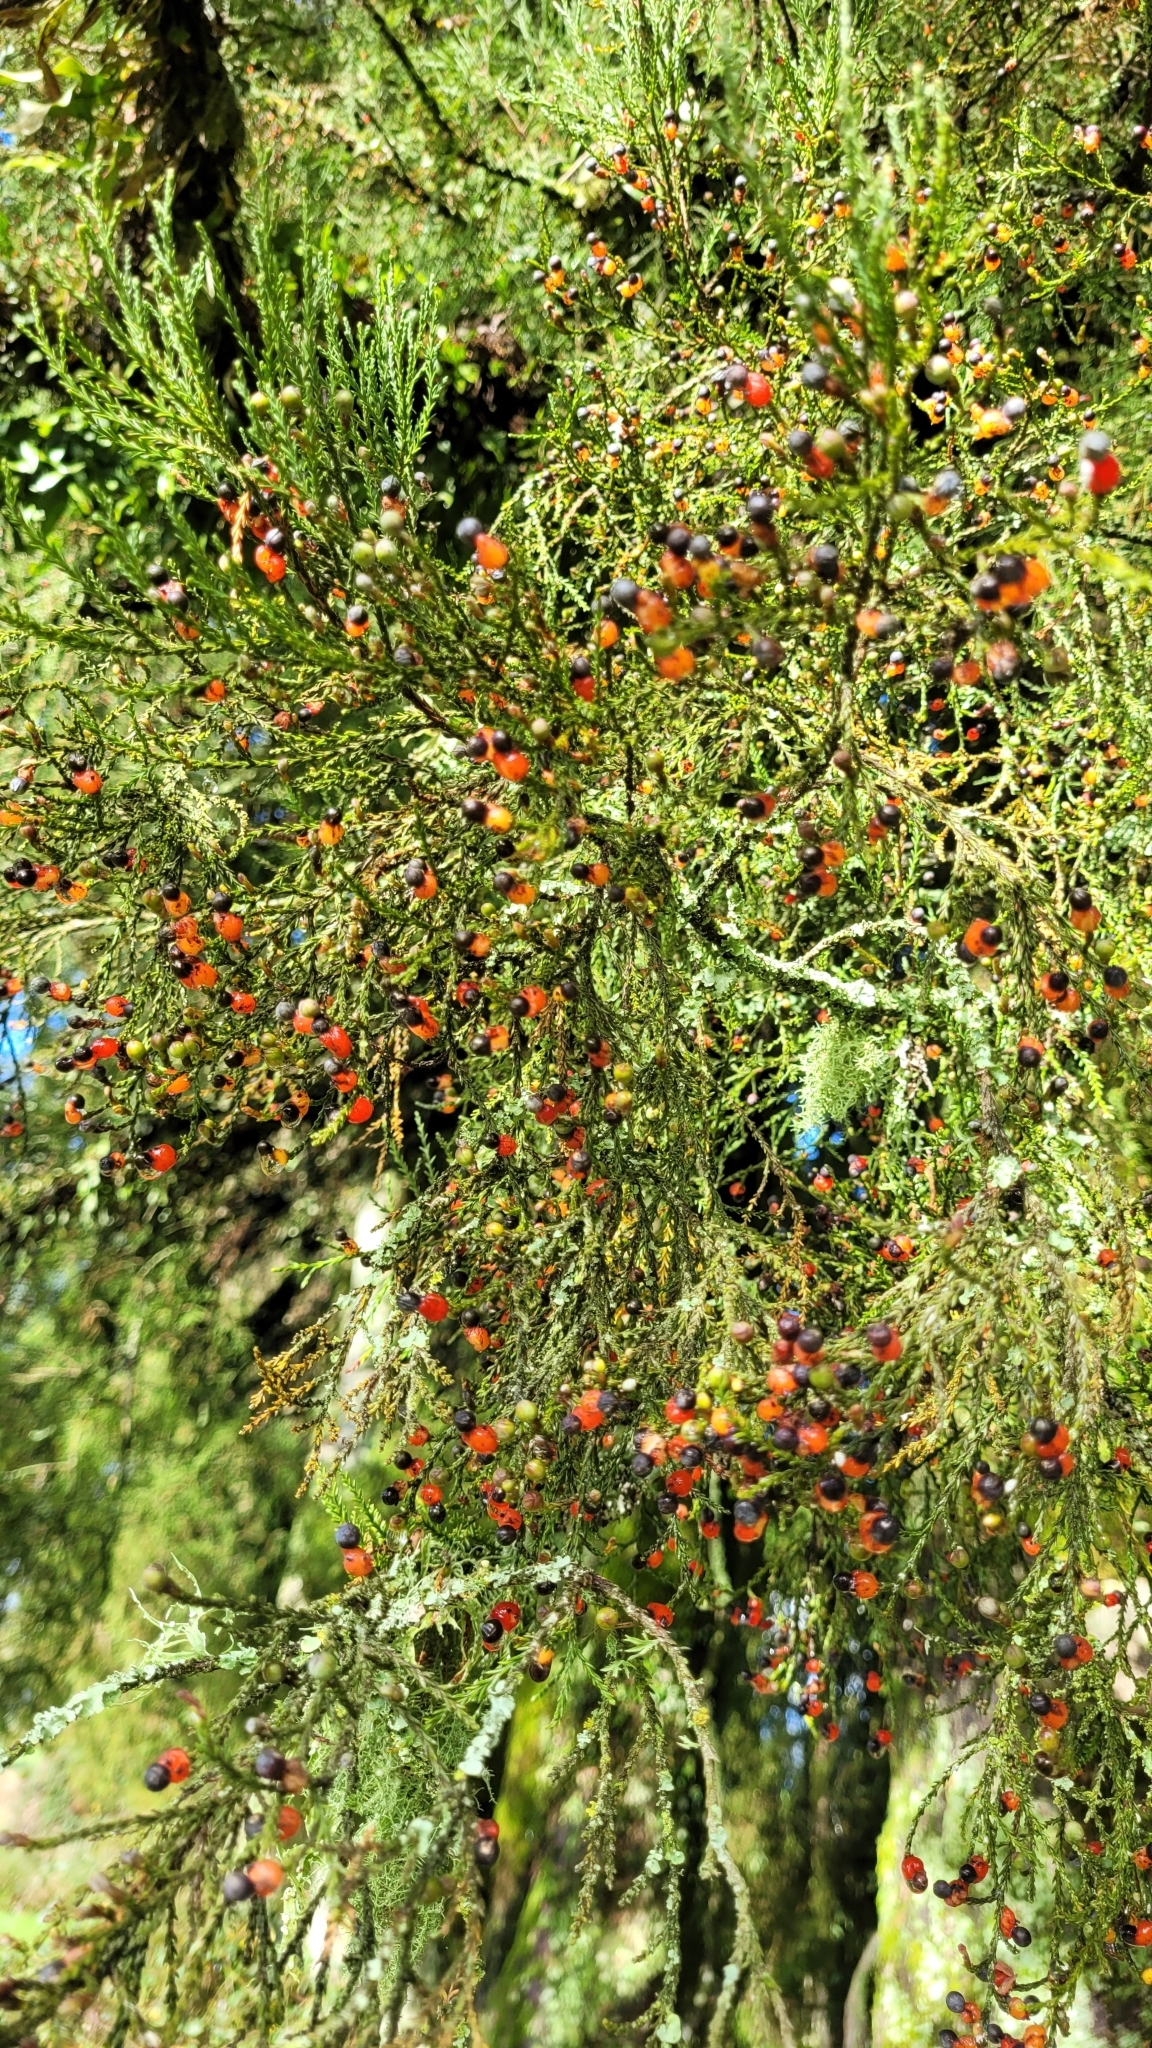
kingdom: Plantae
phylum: Tracheophyta
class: Pinopsida
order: Pinales
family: Podocarpaceae
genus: Dacrycarpus
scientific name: Dacrycarpus dacrydioides
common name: White pine
